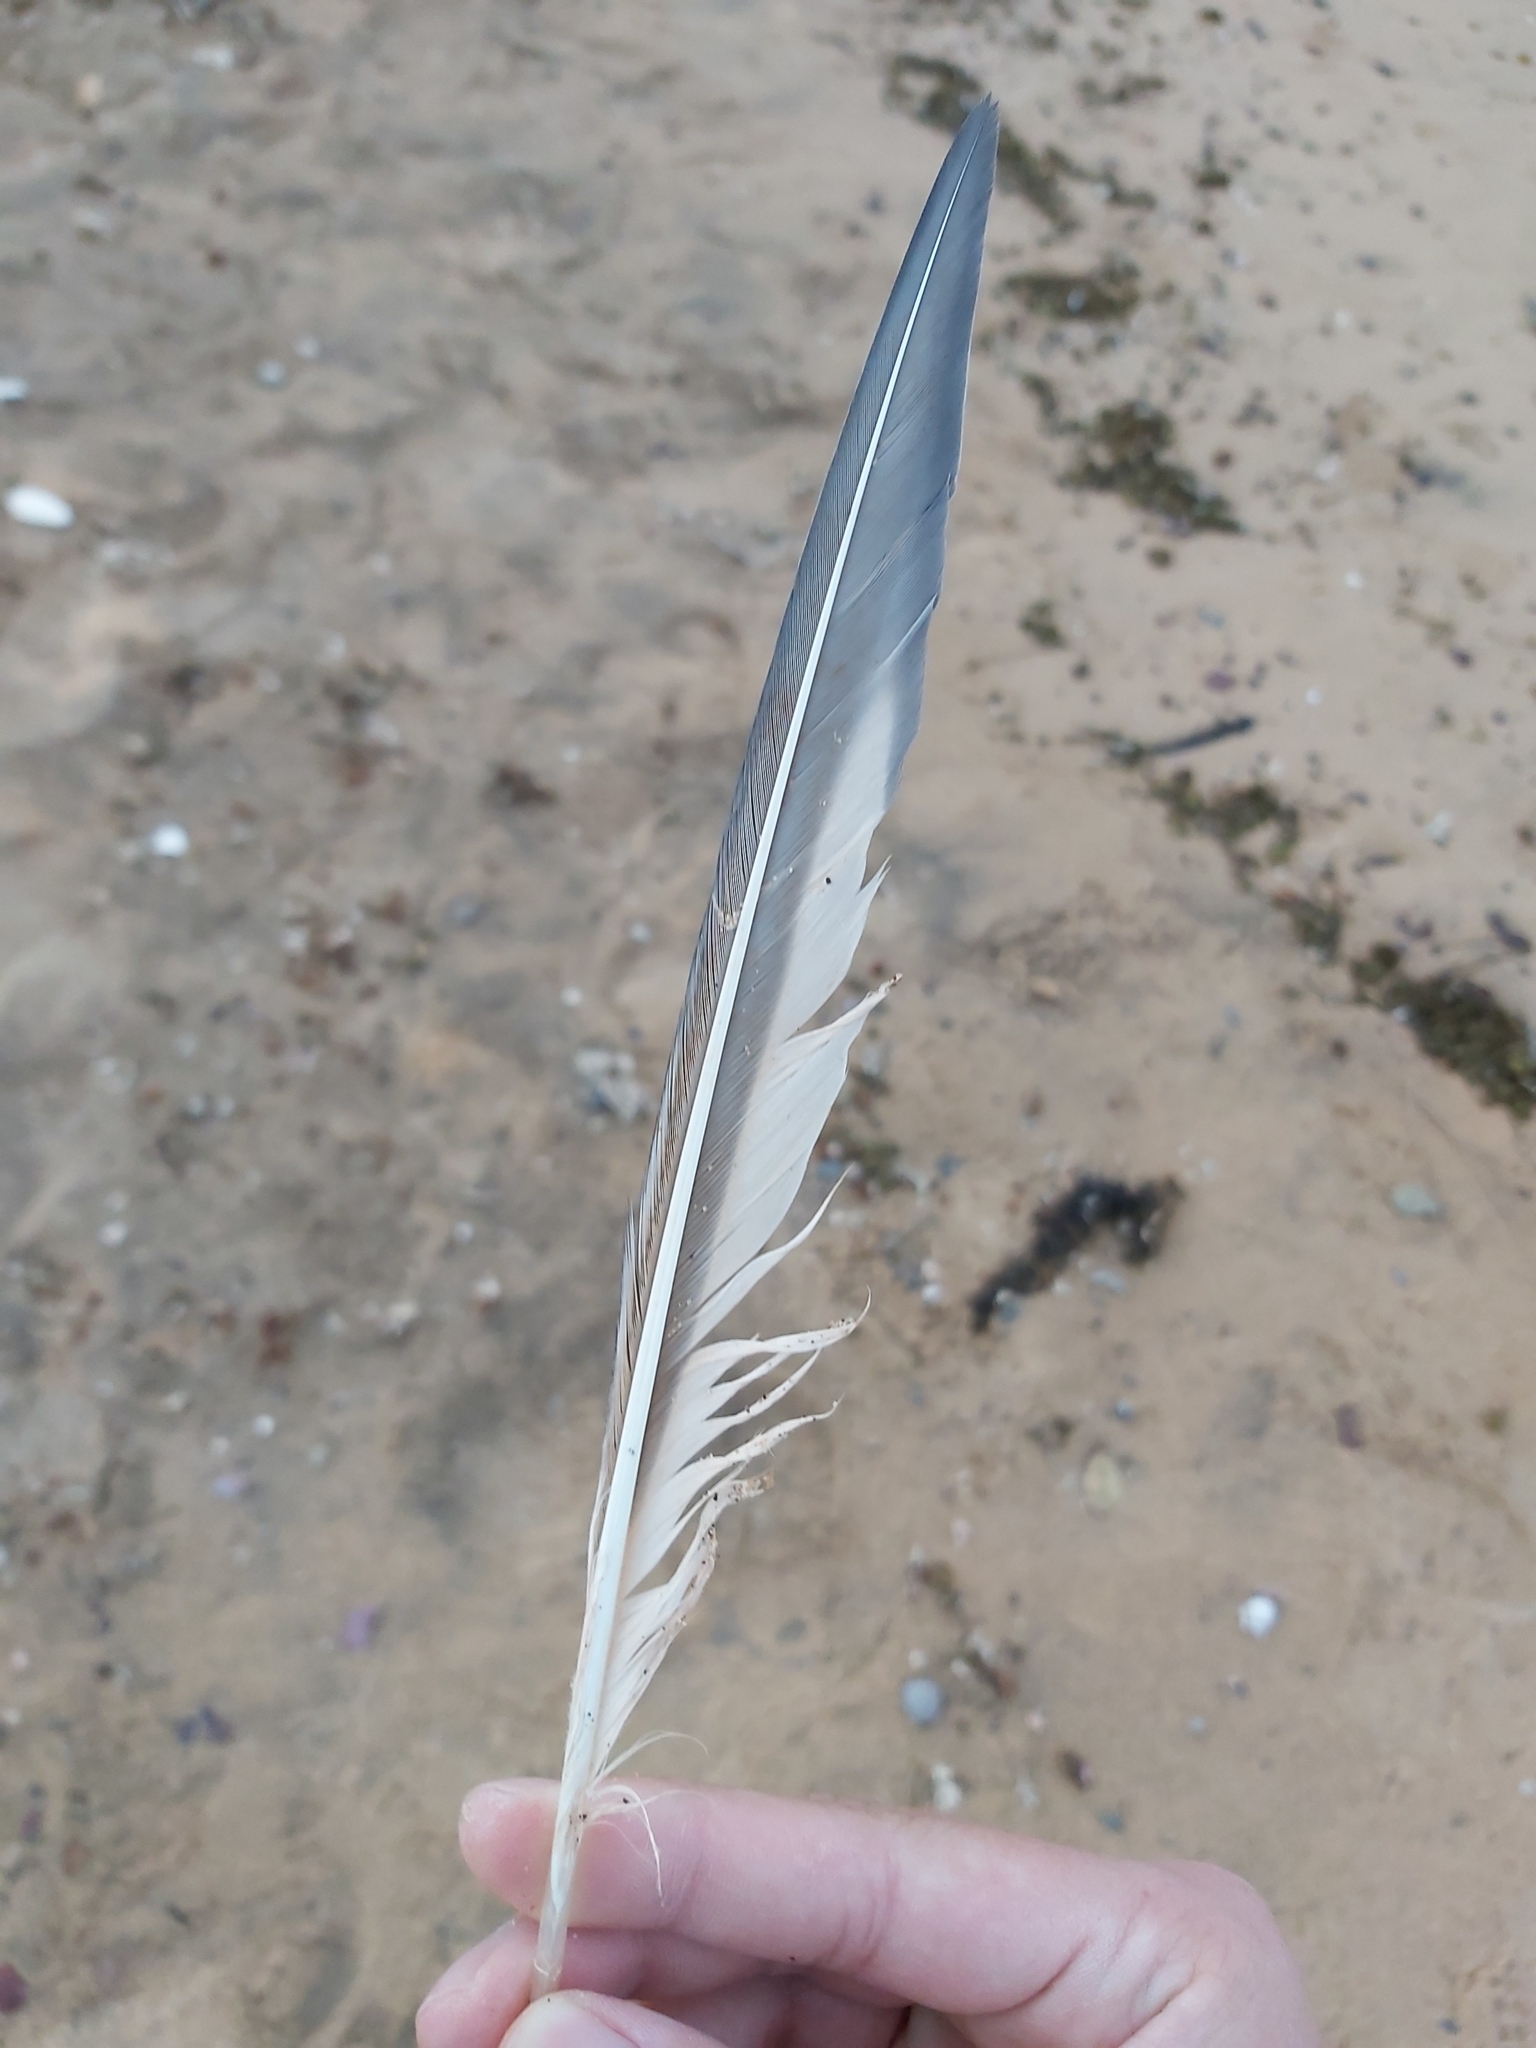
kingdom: Animalia
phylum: Chordata
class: Aves
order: Charadriiformes
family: Laridae
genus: Thalasseus
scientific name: Thalasseus bergii
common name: Greater crested tern
